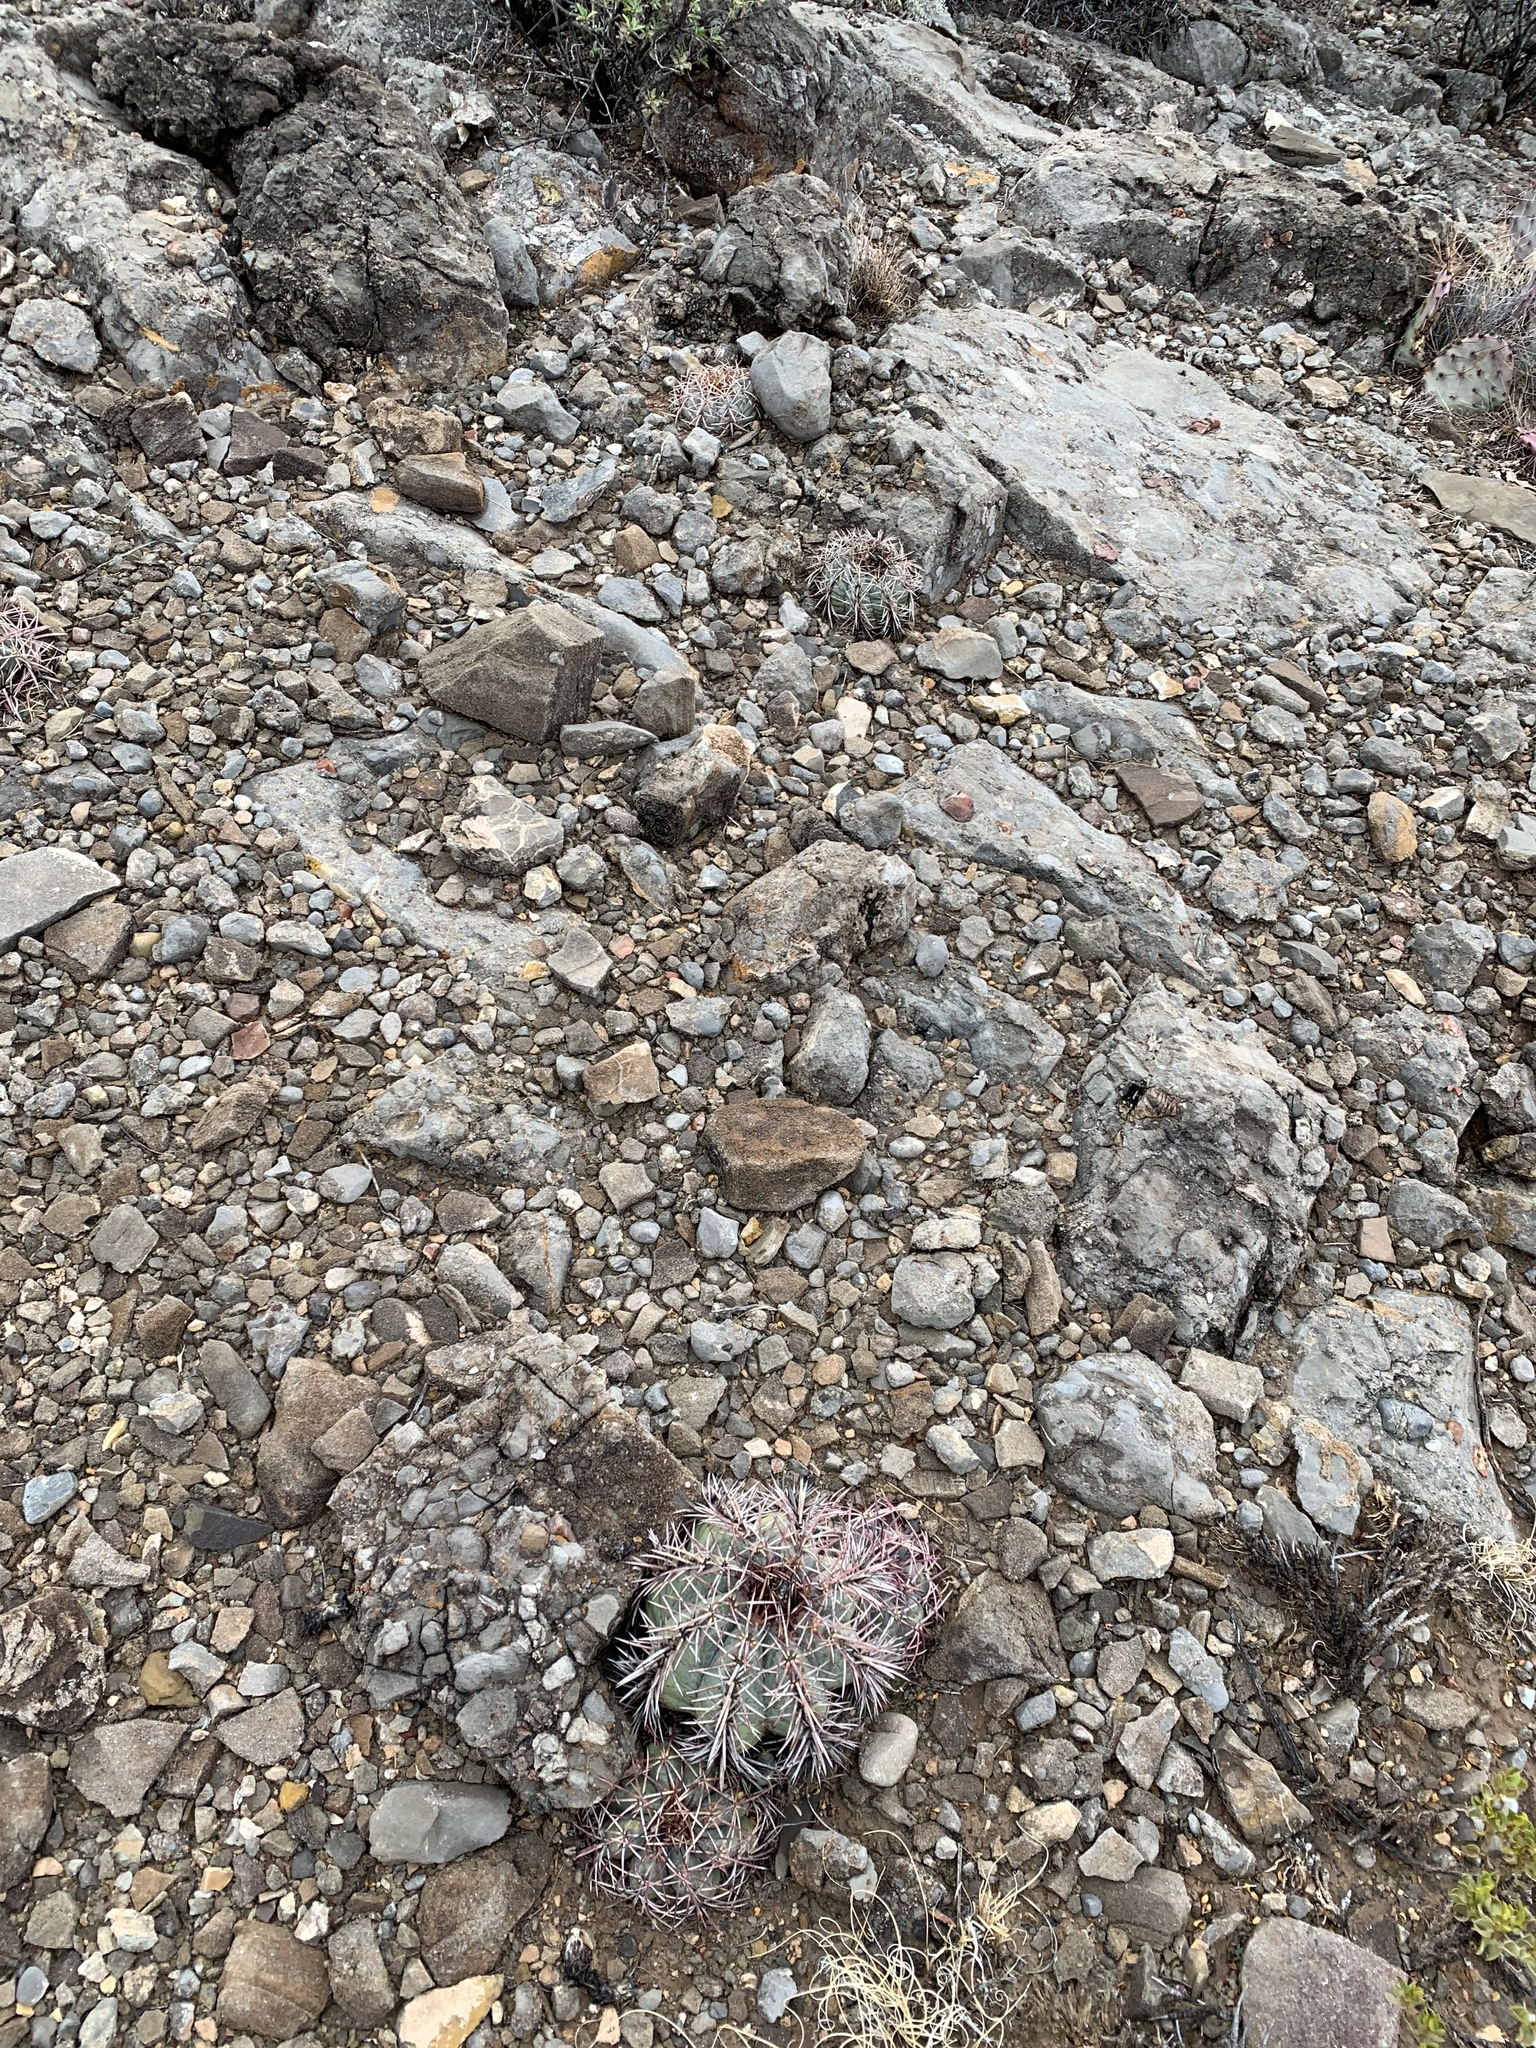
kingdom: Plantae
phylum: Tracheophyta
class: Magnoliopsida
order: Caryophyllales
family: Cactaceae
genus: Echinocactus
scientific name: Echinocactus horizonthalonius
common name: Devilshead
